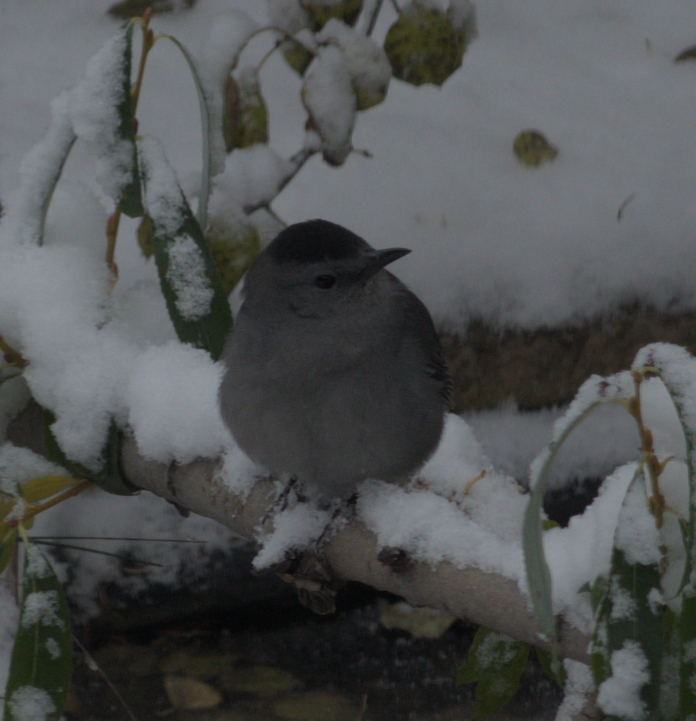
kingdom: Animalia
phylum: Chordata
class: Aves
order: Passeriformes
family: Mimidae
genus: Dumetella
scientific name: Dumetella carolinensis
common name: Gray catbird
